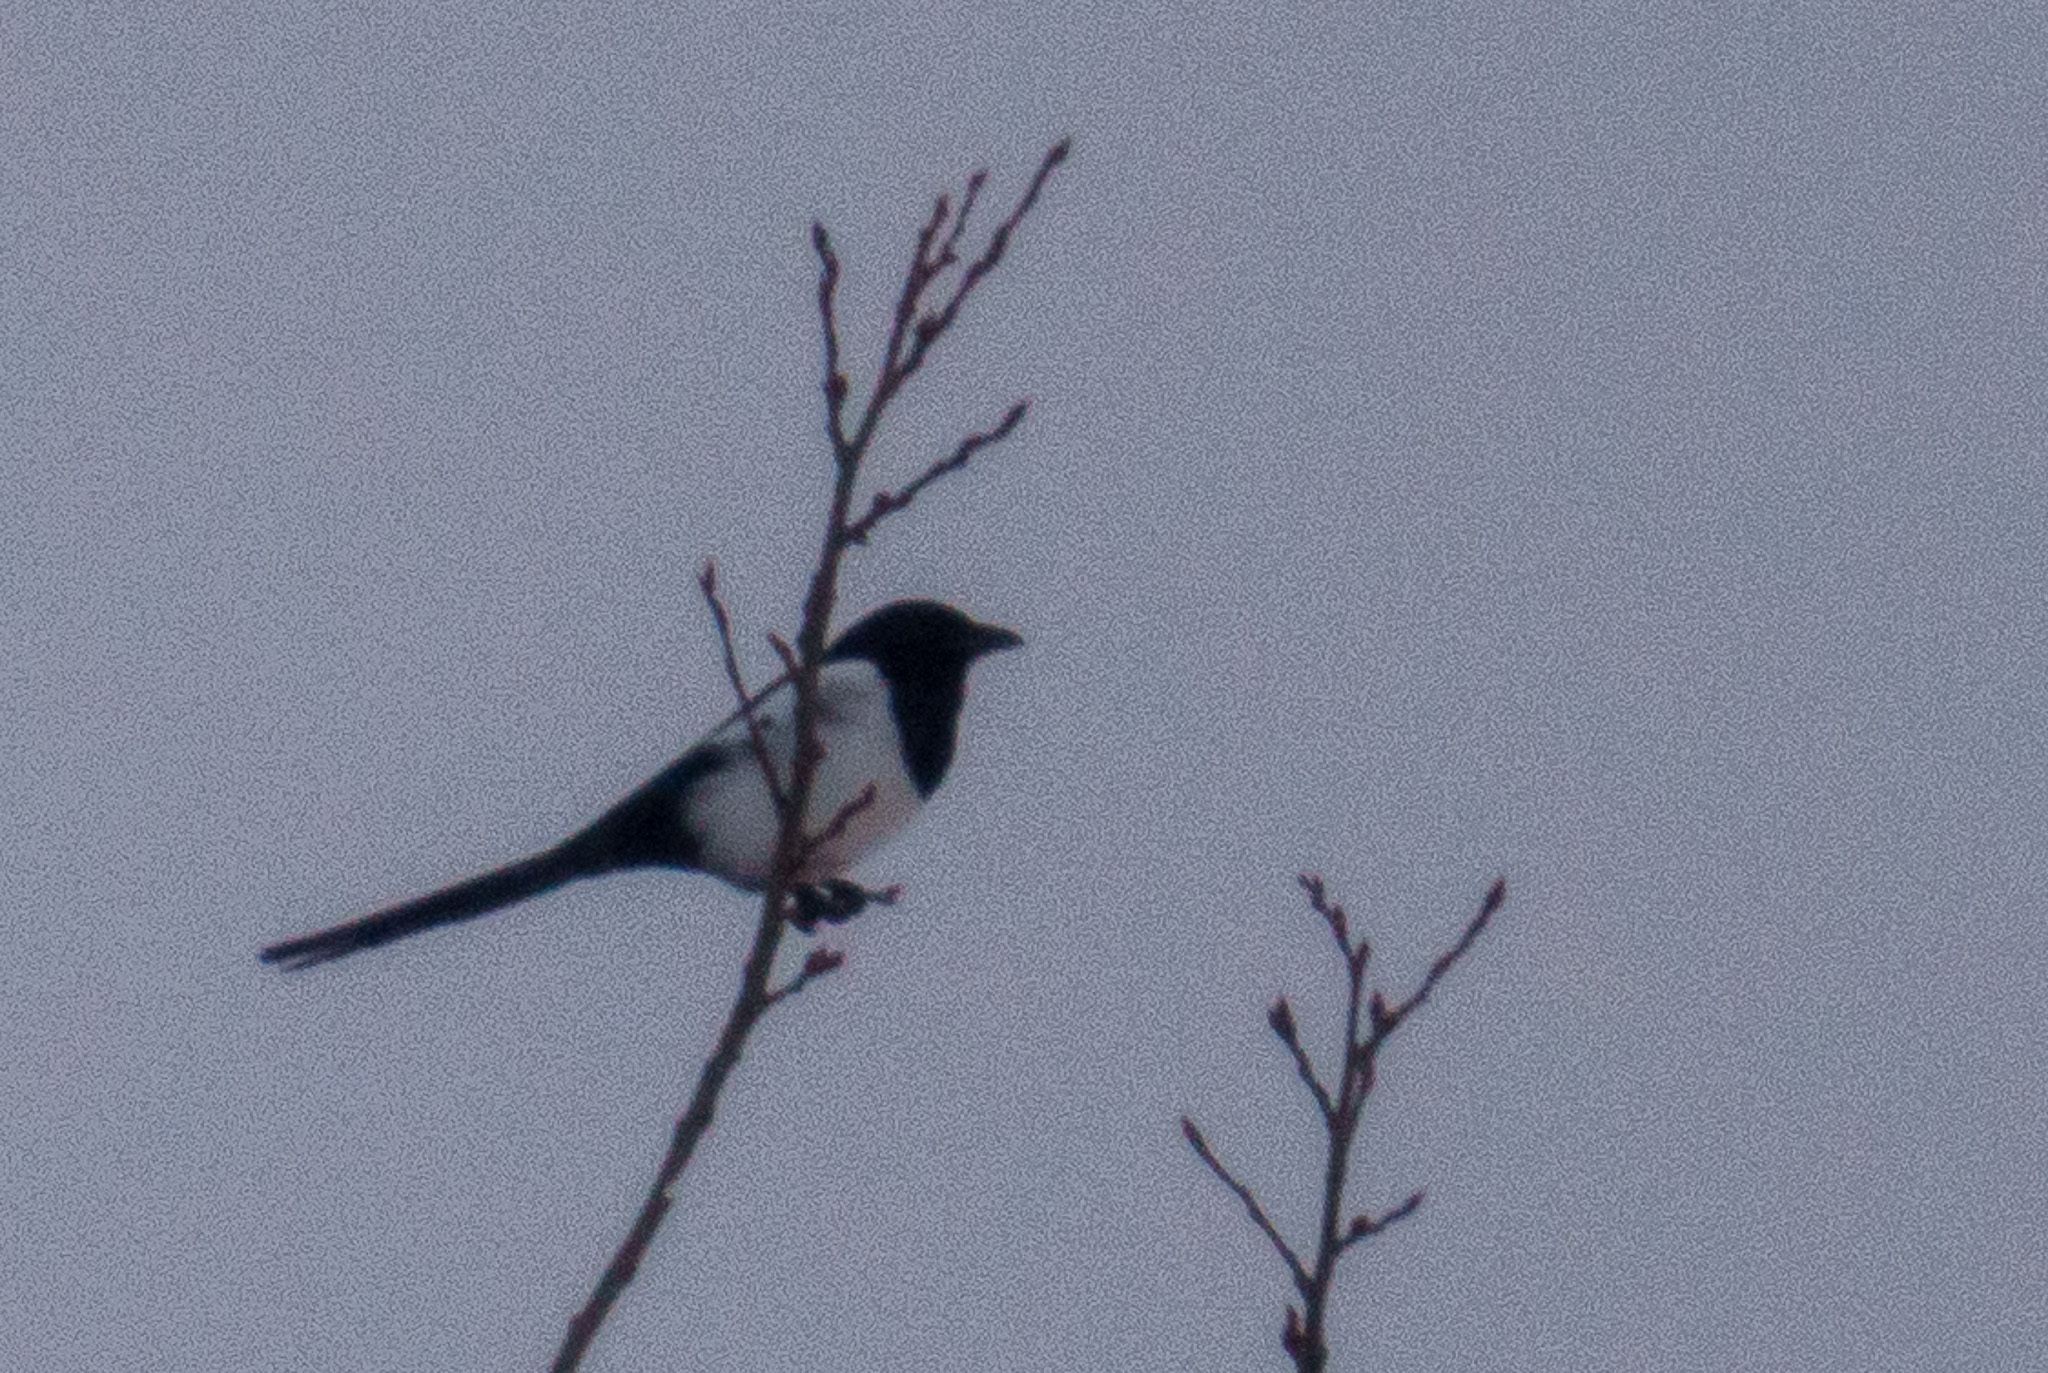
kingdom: Animalia
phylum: Chordata
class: Aves
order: Passeriformes
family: Corvidae
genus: Pica
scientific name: Pica pica
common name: Eurasian magpie
